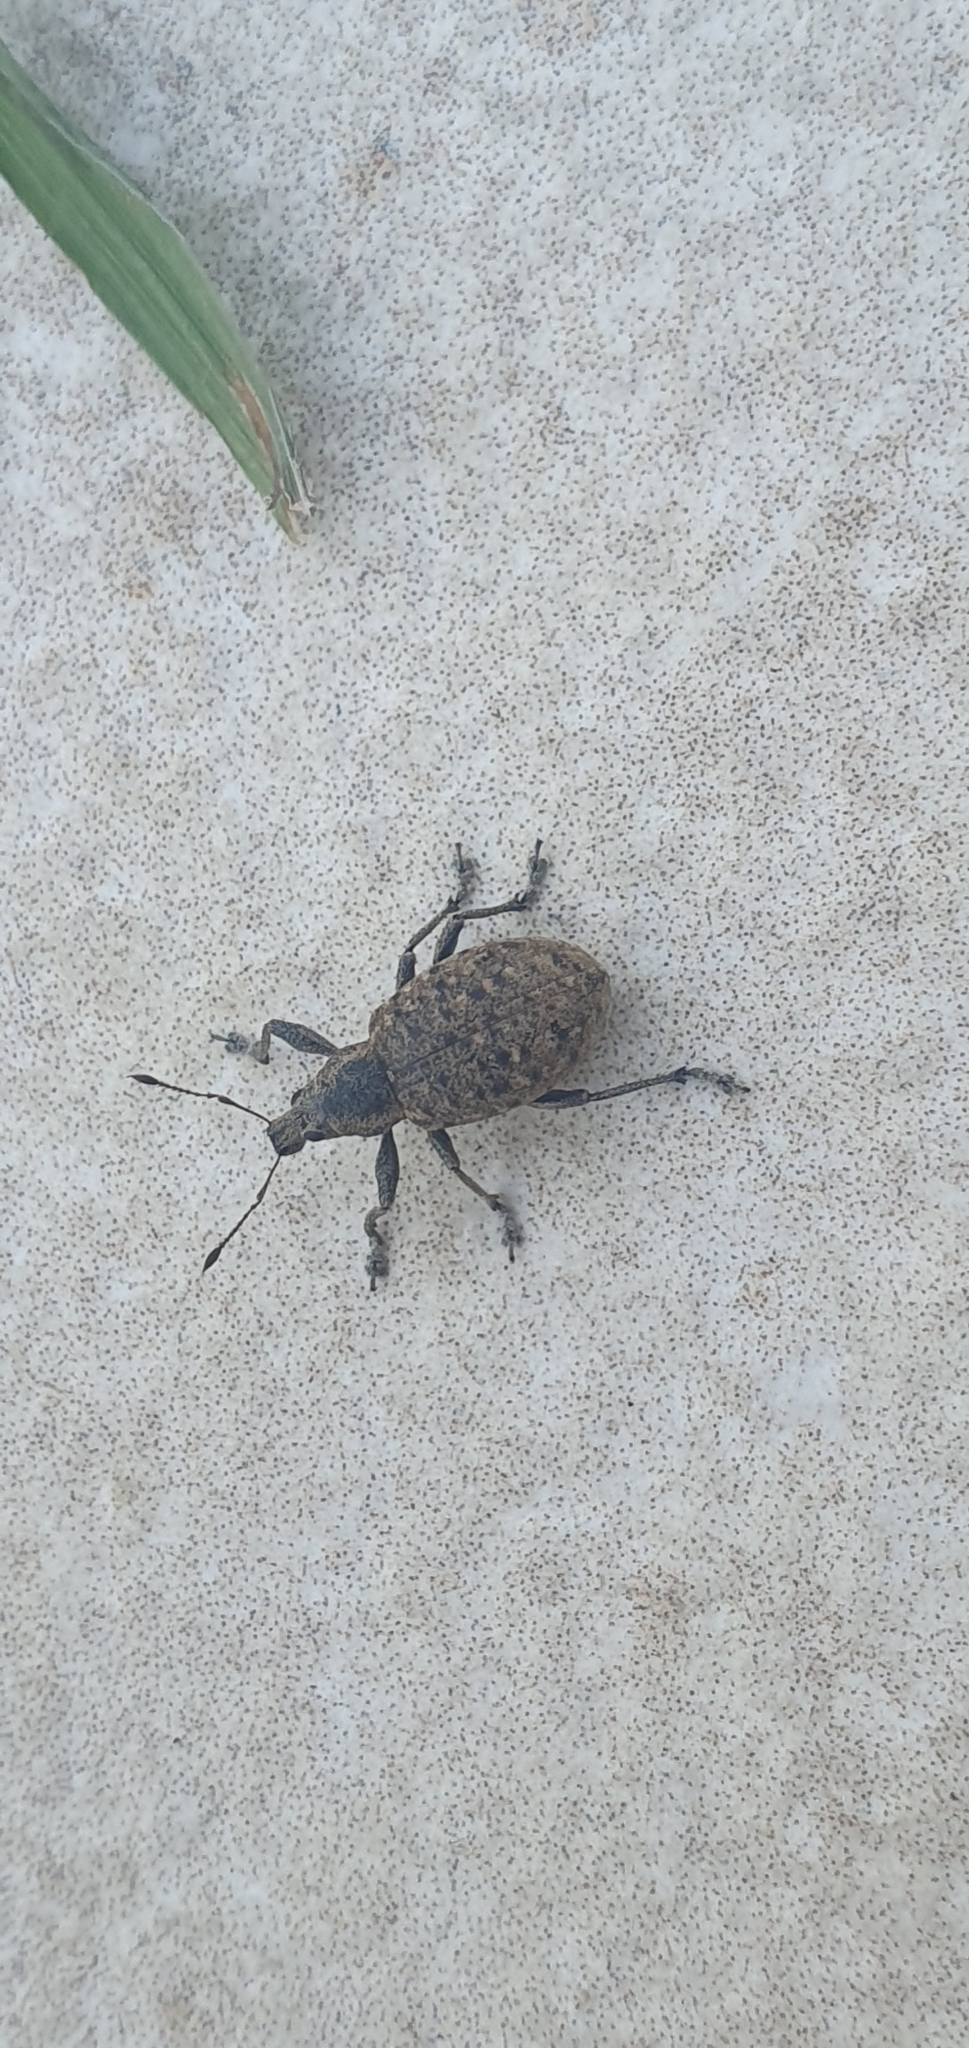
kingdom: Animalia
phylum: Arthropoda
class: Insecta
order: Coleoptera
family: Curculionidae
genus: Liophloeus
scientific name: Liophloeus tessulatus
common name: Weevil
